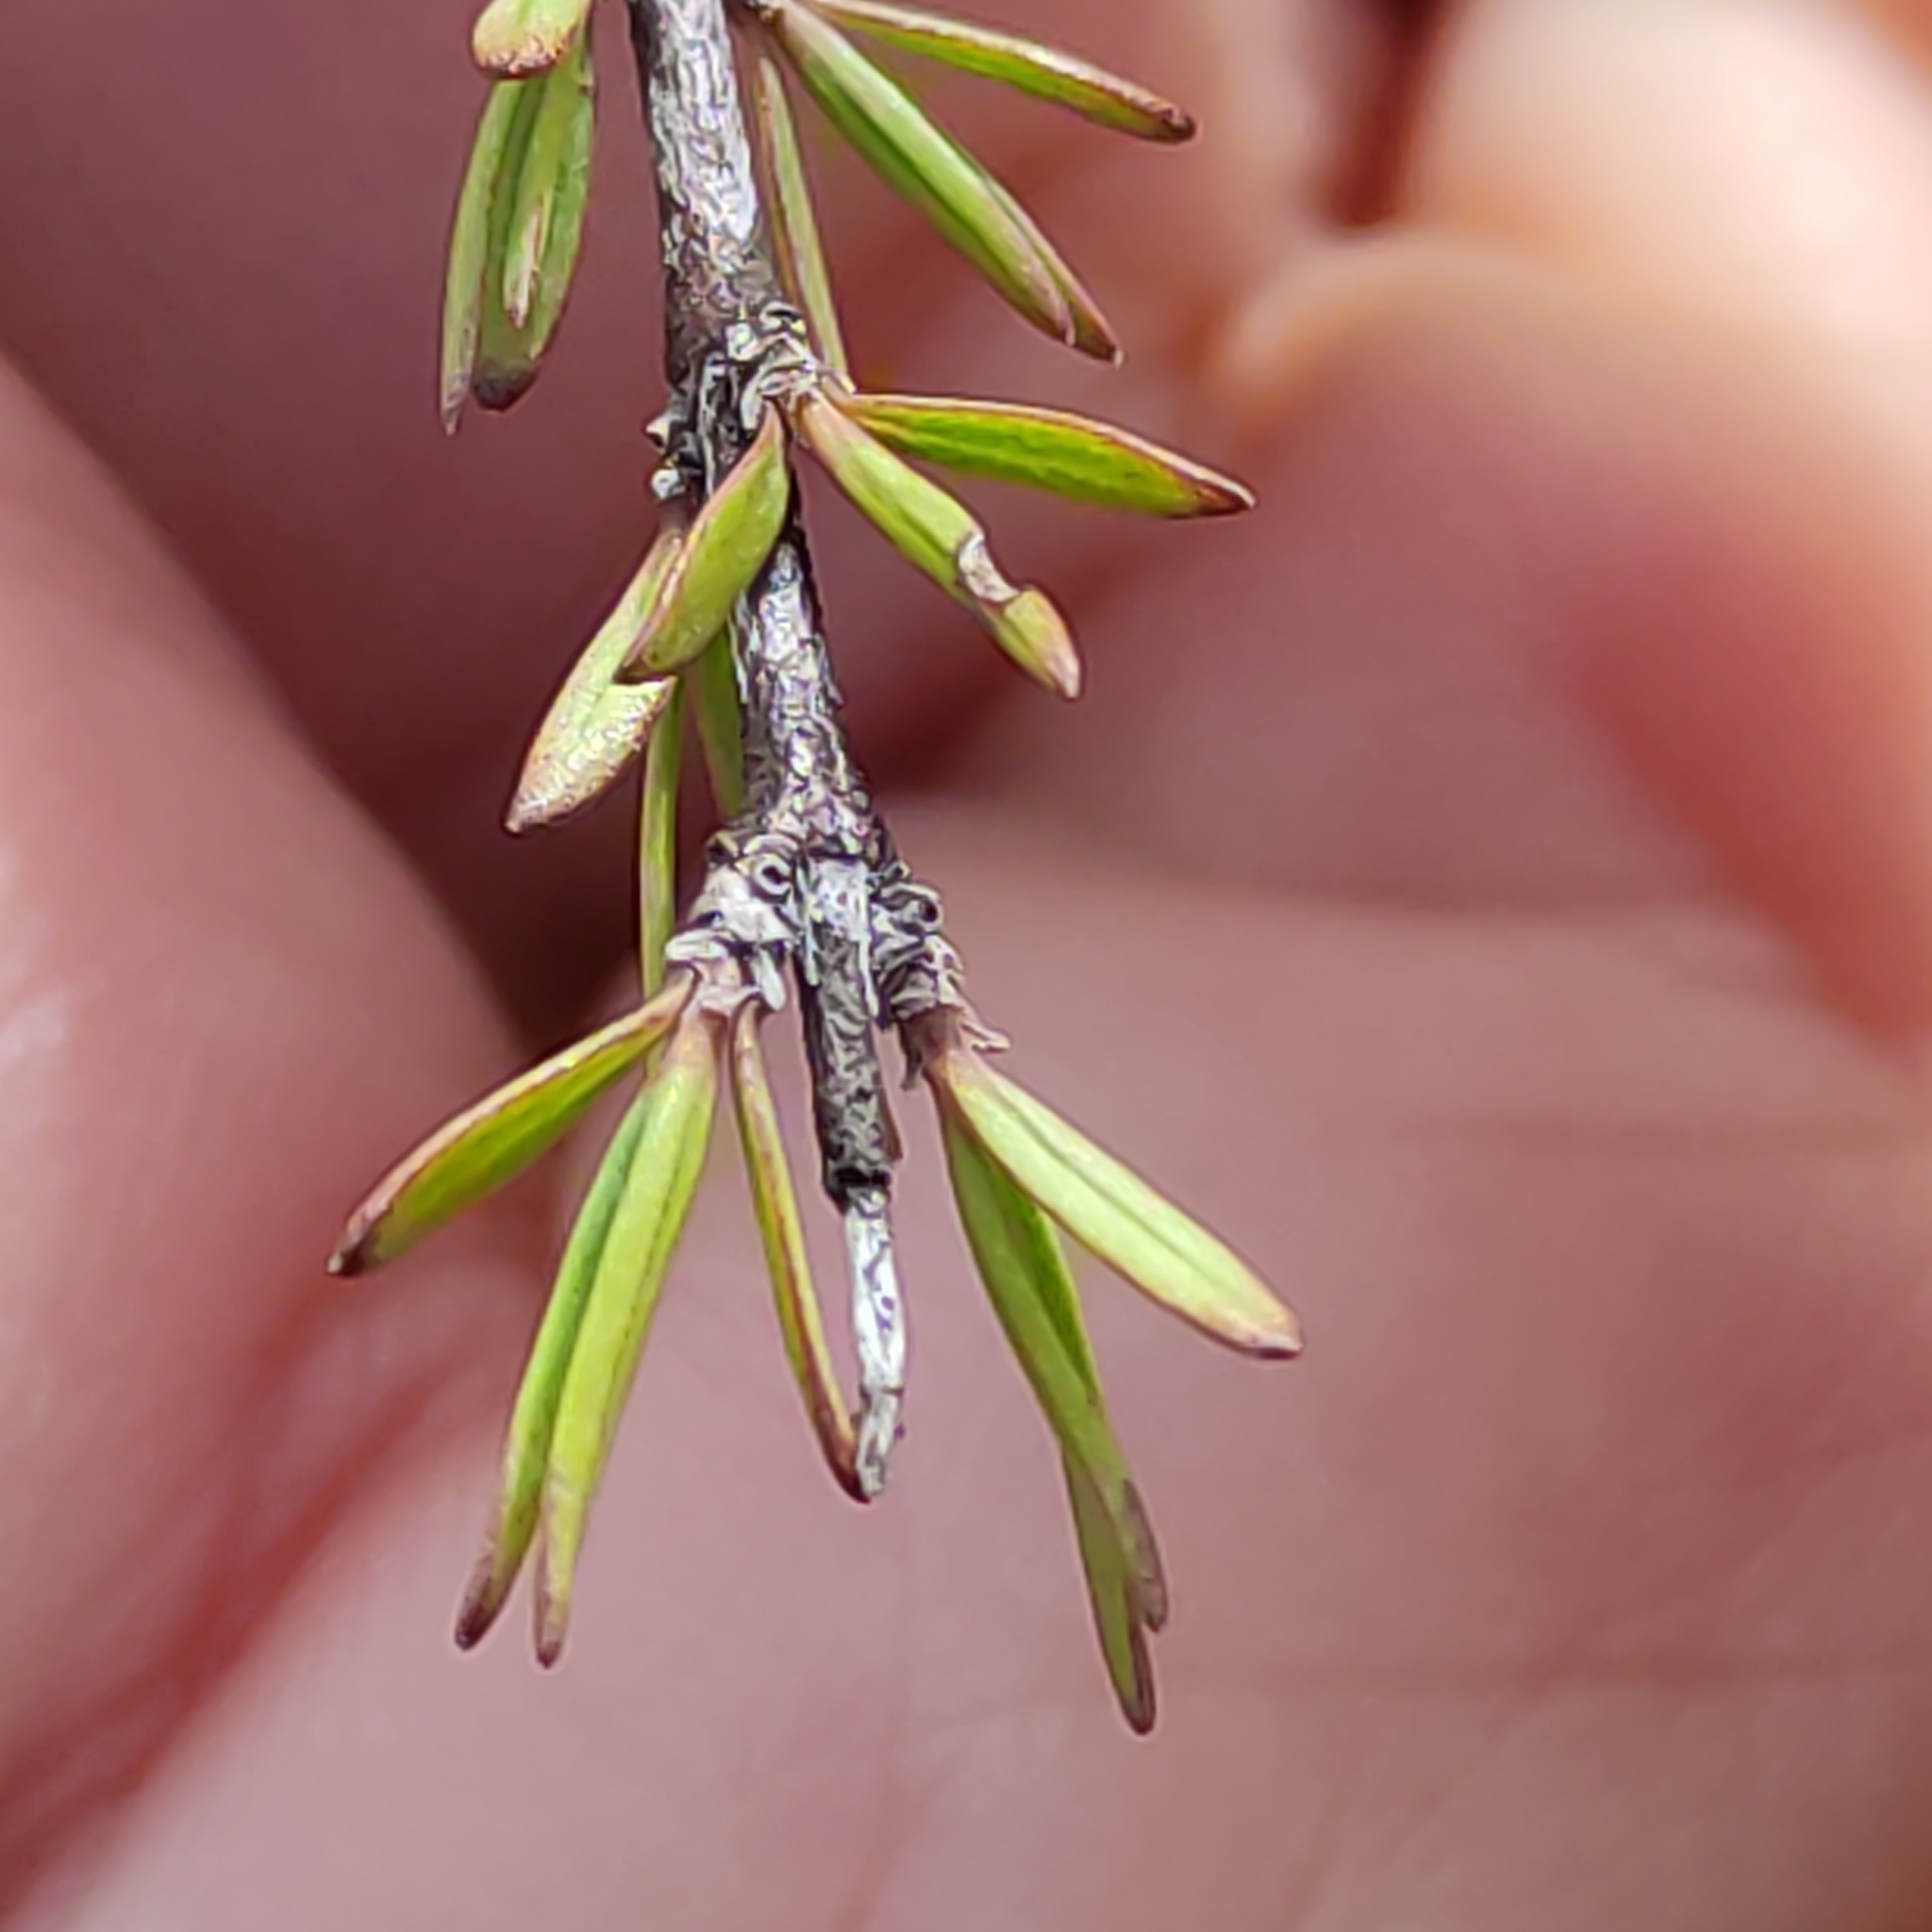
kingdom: Plantae
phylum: Tracheophyta
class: Magnoliopsida
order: Gentianales
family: Rubiaceae
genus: Coprosma
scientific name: Coprosma intertexta
